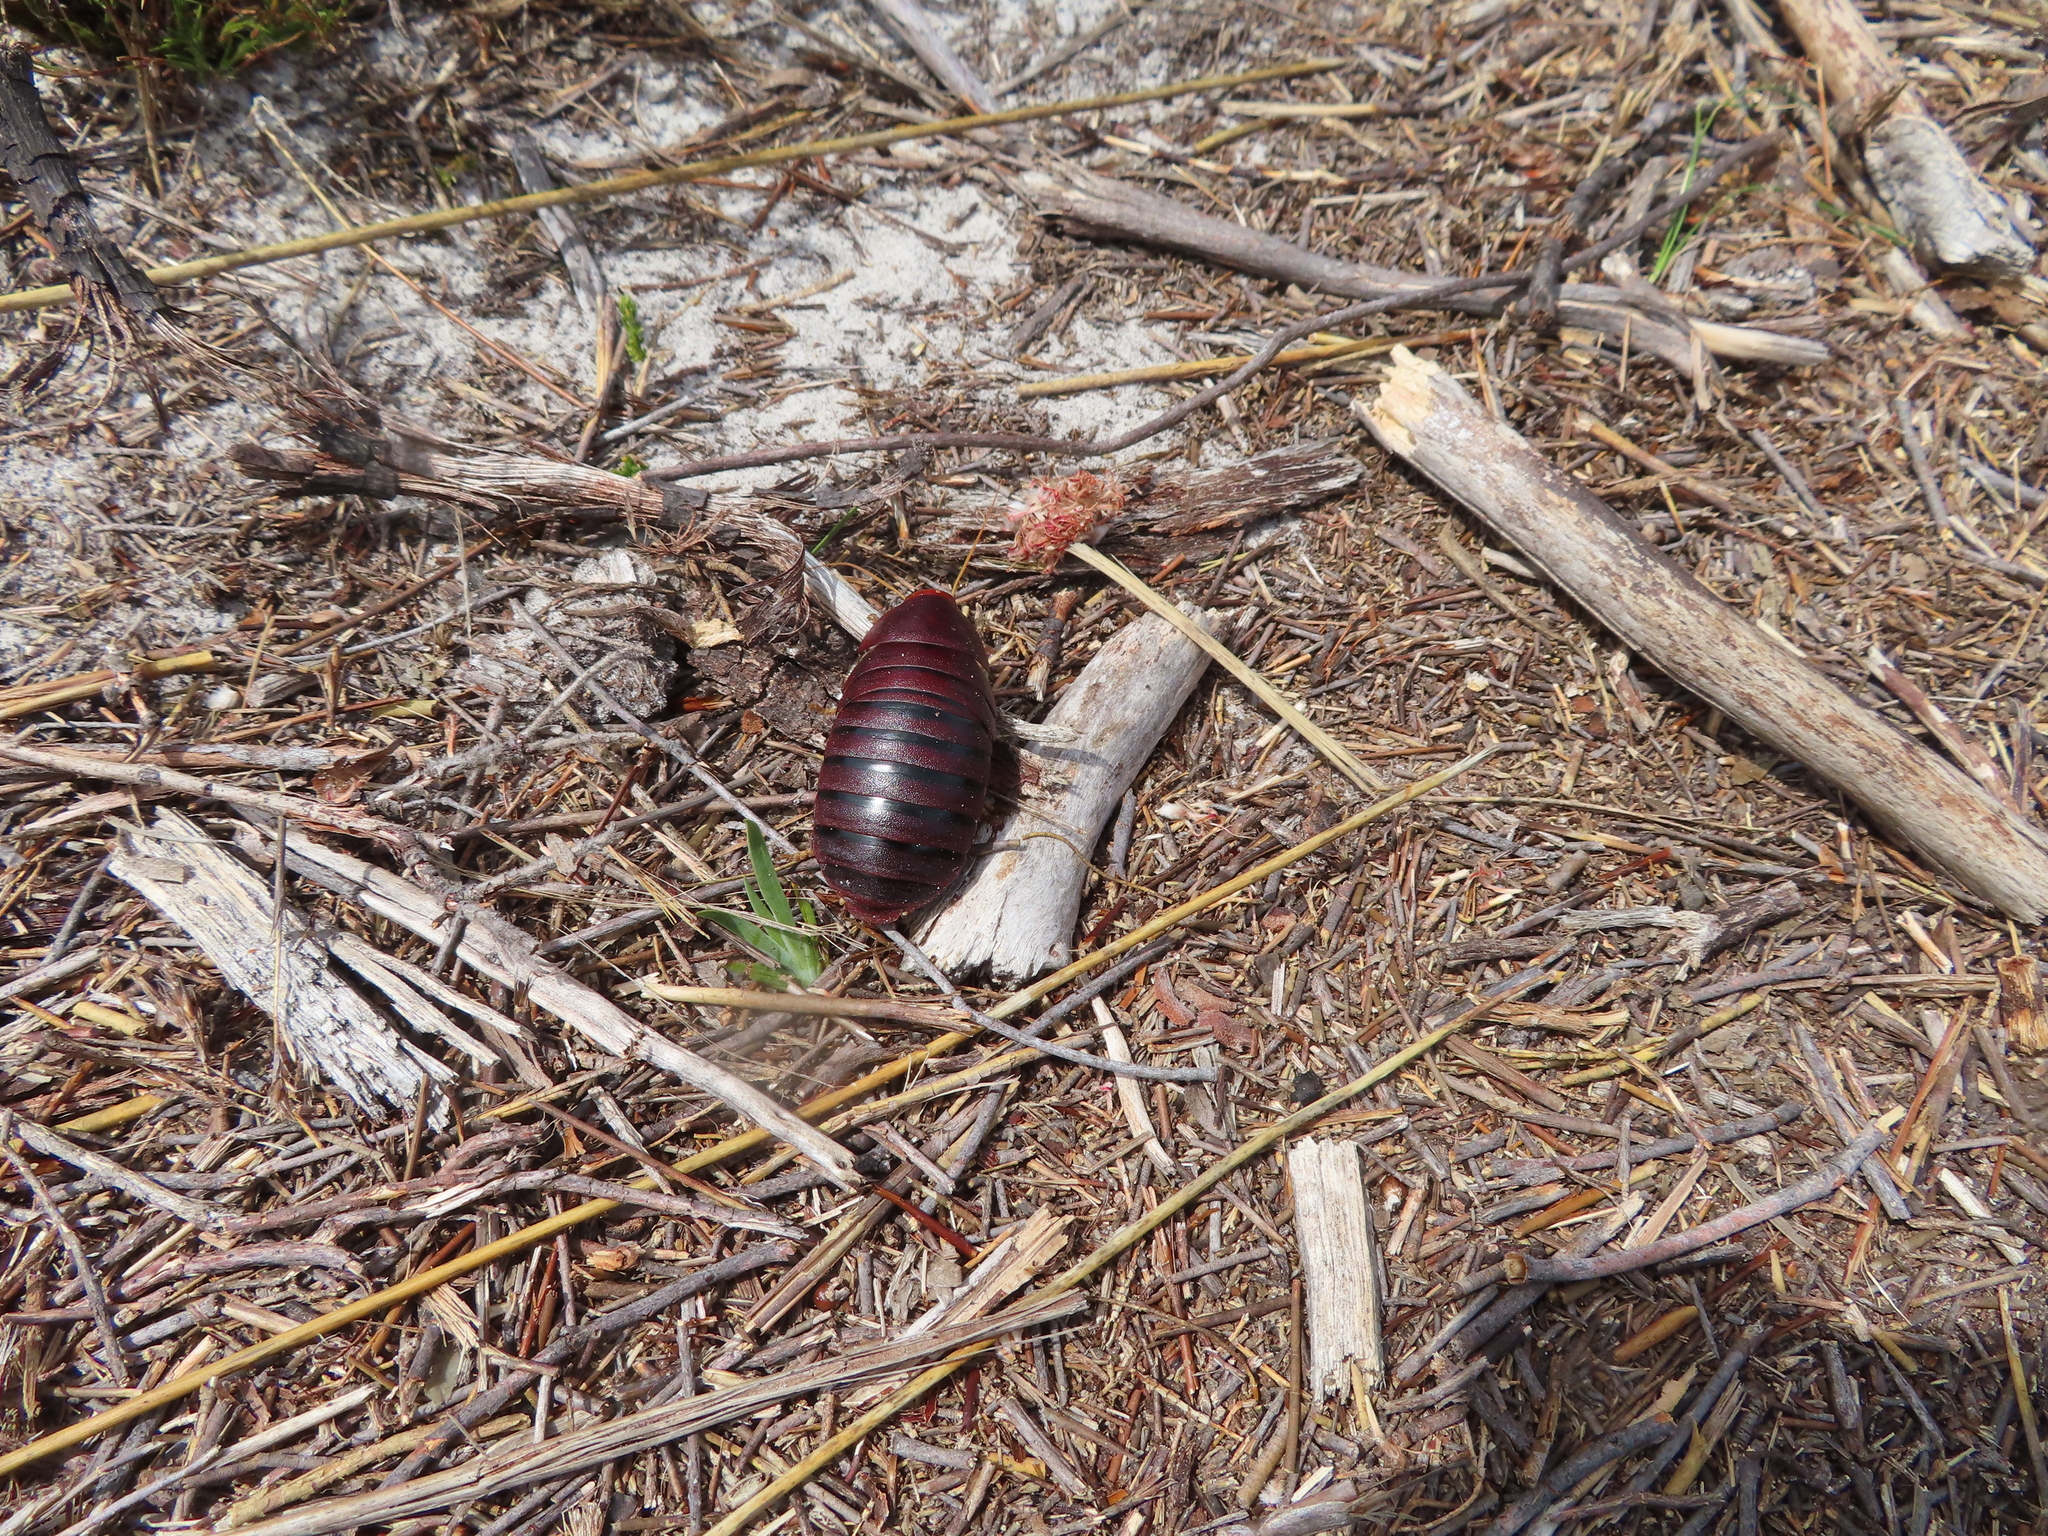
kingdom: Animalia
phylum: Arthropoda
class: Insecta
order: Blattodea
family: Blaberidae
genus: Aptera
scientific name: Aptera fusca
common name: Cape mountain cockroach
